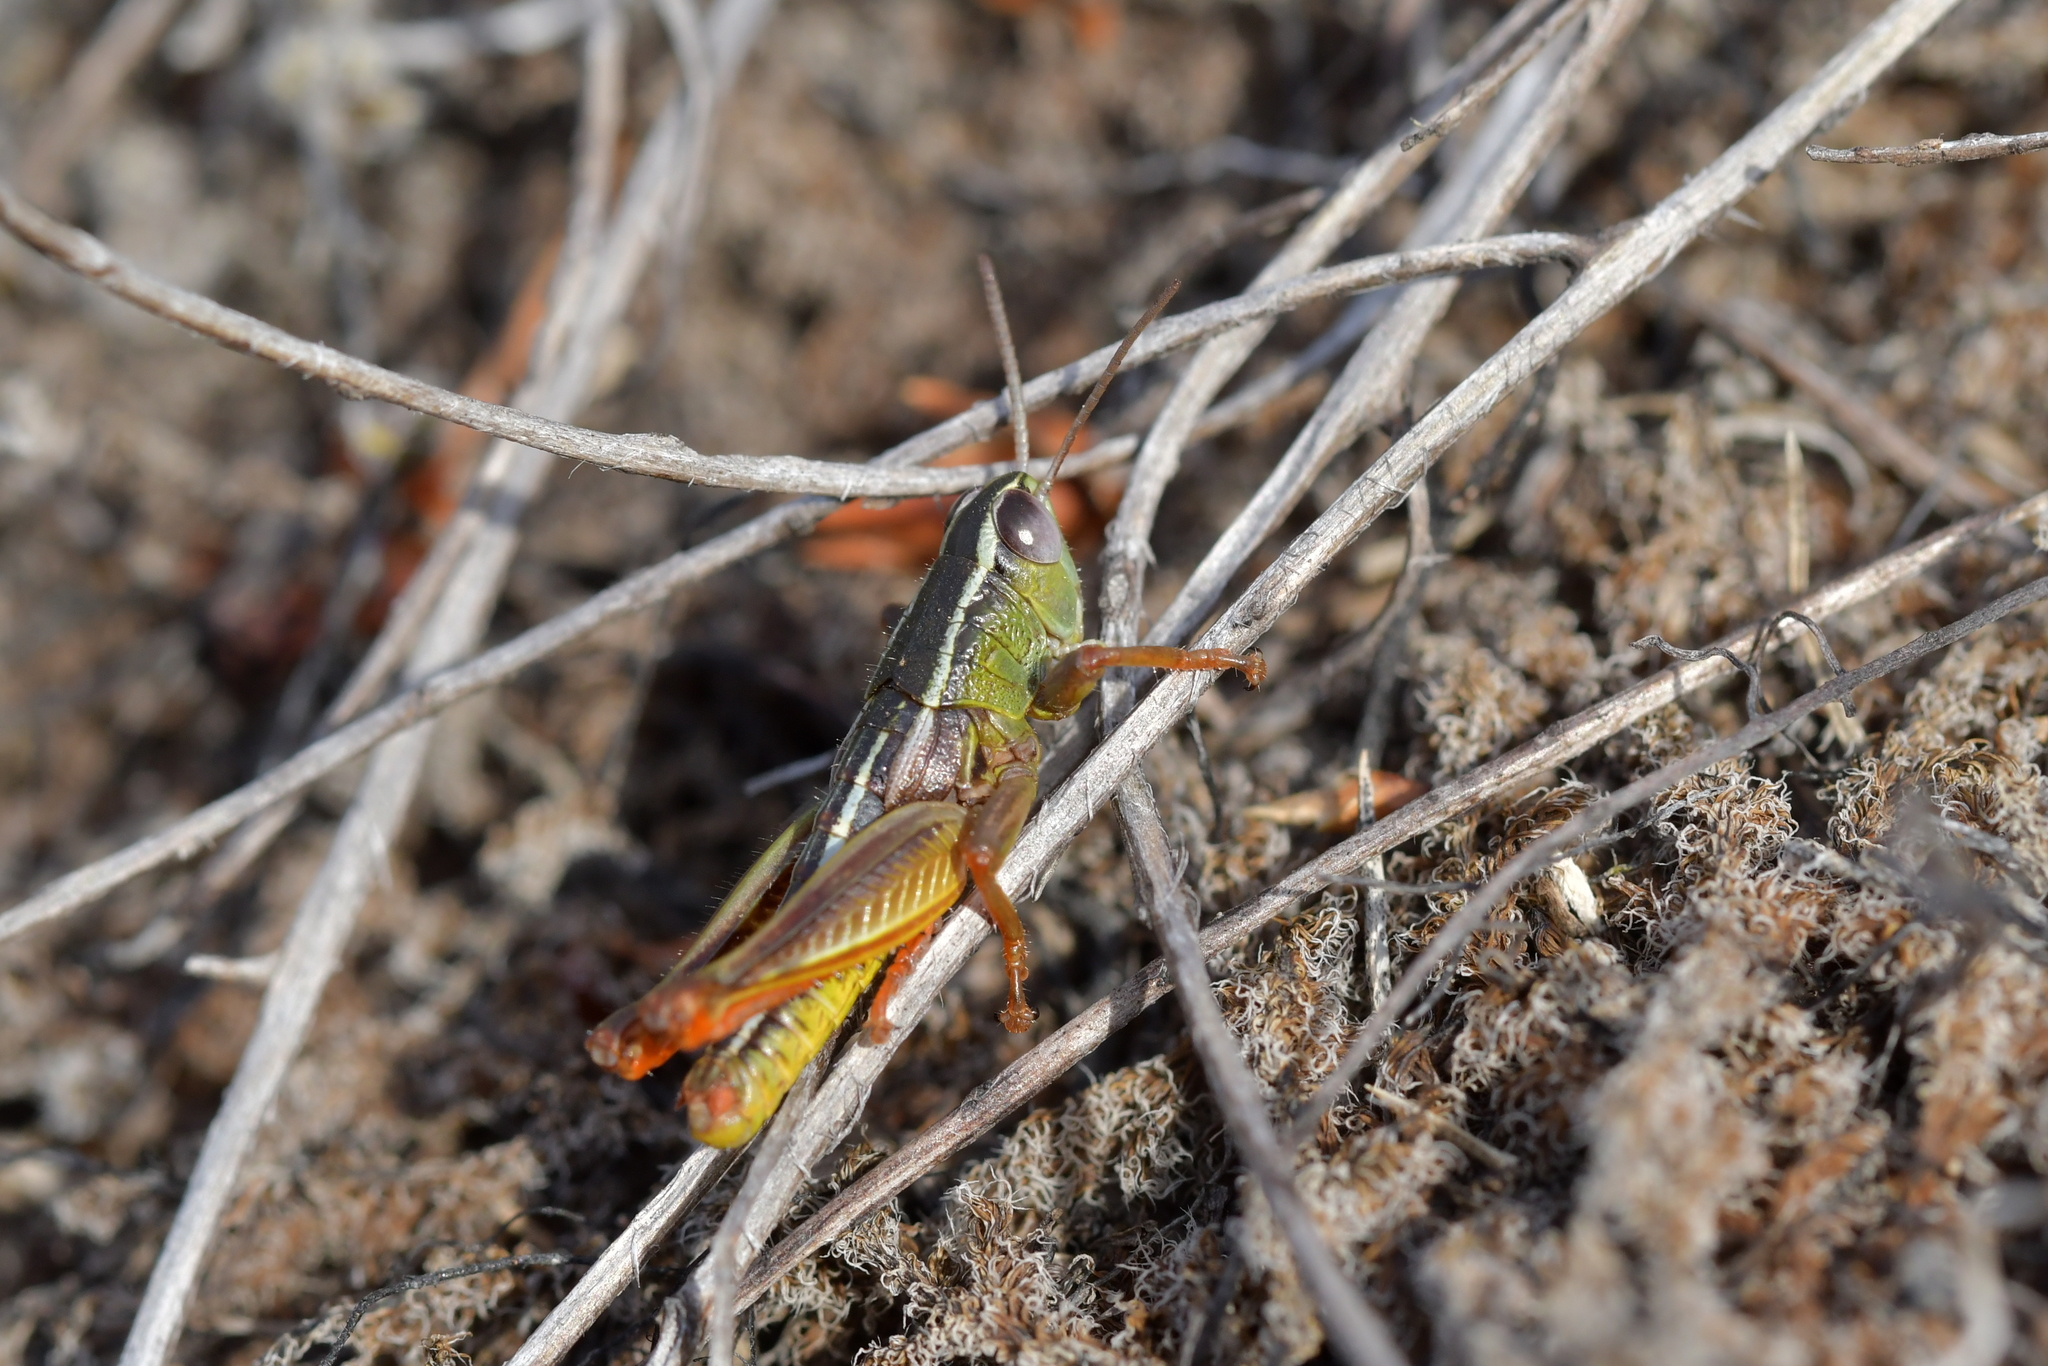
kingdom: Animalia
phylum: Arthropoda
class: Insecta
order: Orthoptera
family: Acrididae
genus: Sigaus
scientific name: Sigaus
